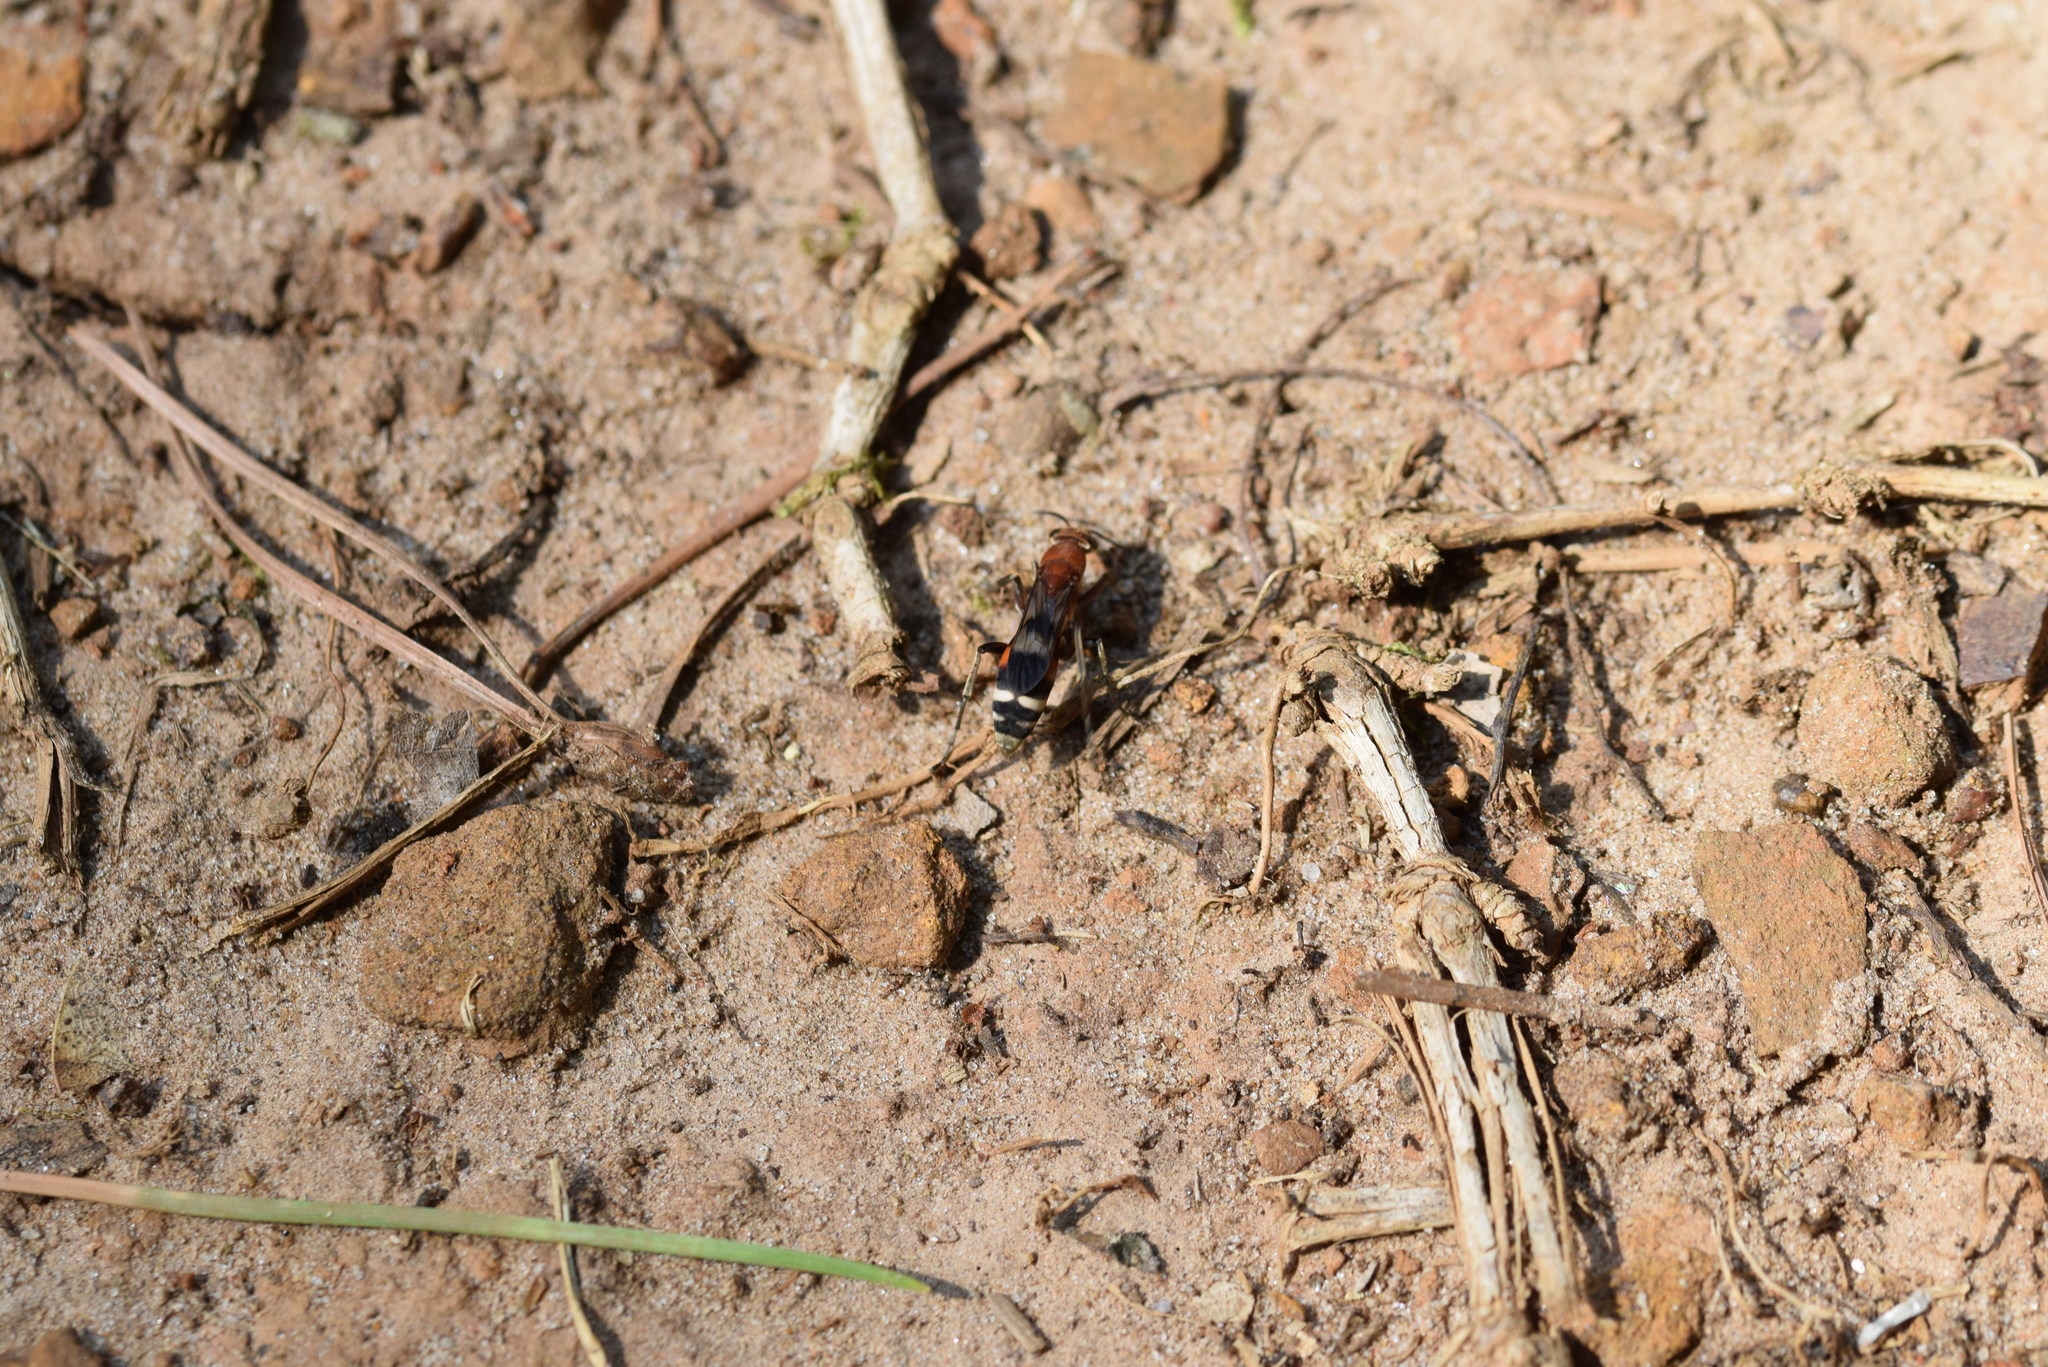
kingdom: Animalia
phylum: Arthropoda
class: Insecta
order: Hymenoptera
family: Pompilidae
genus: Psorthaspis
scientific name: Psorthaspis legata
